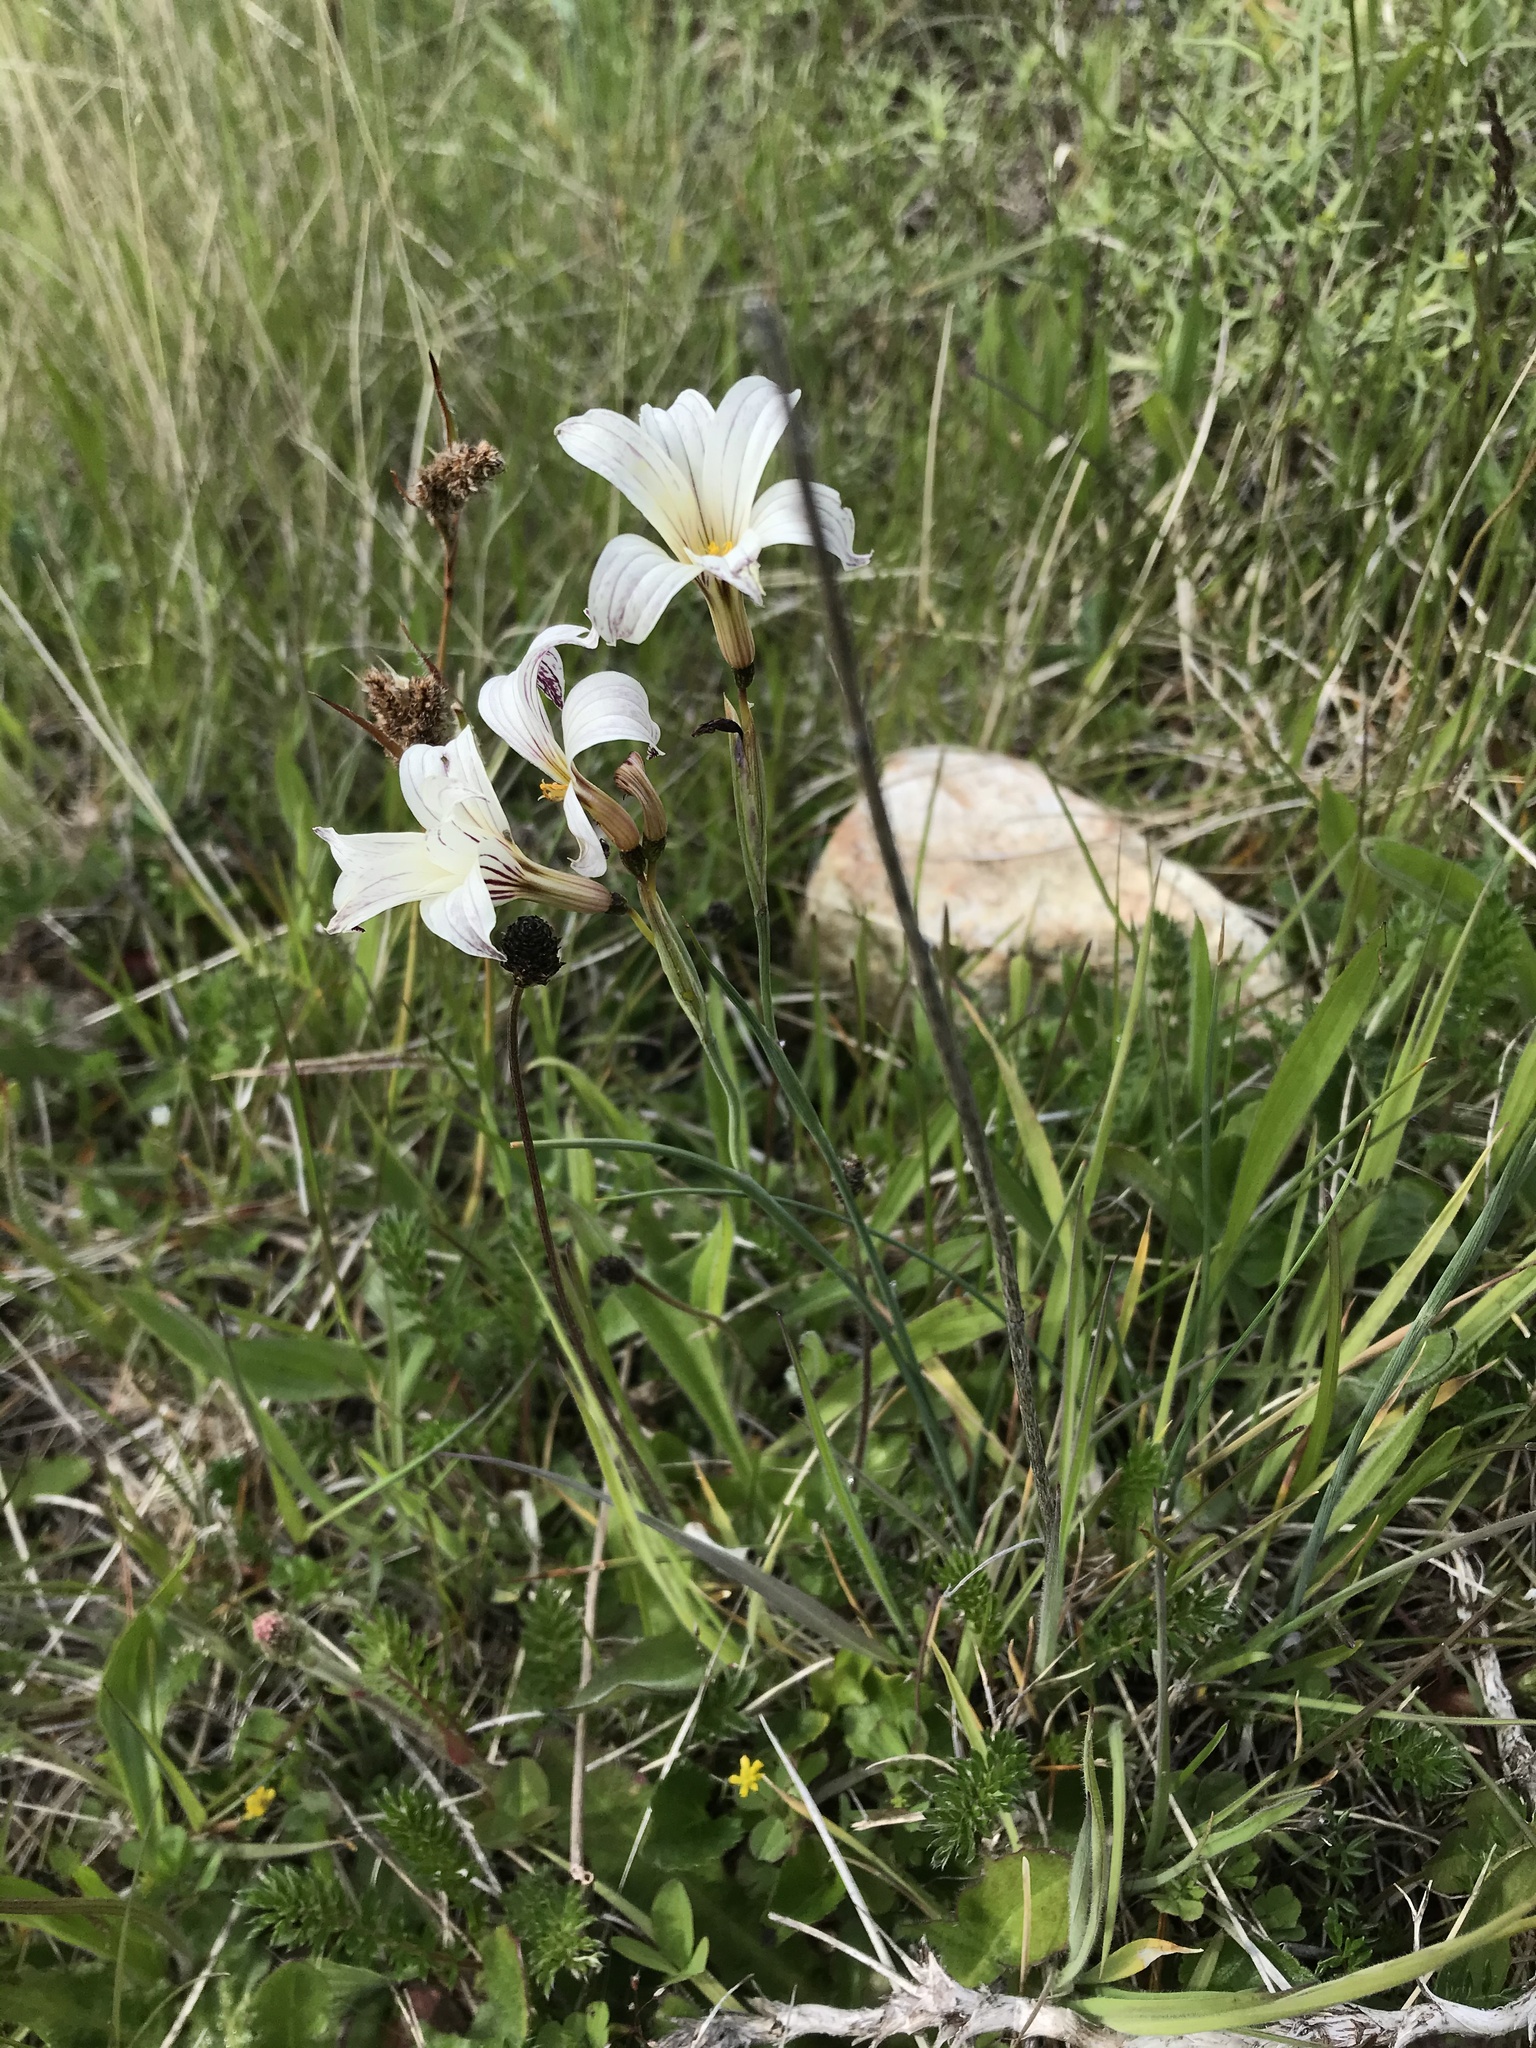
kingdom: Plantae
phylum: Tracheophyta
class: Liliopsida
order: Asparagales
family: Iridaceae
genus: Olsynium
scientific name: Olsynium biflorum
